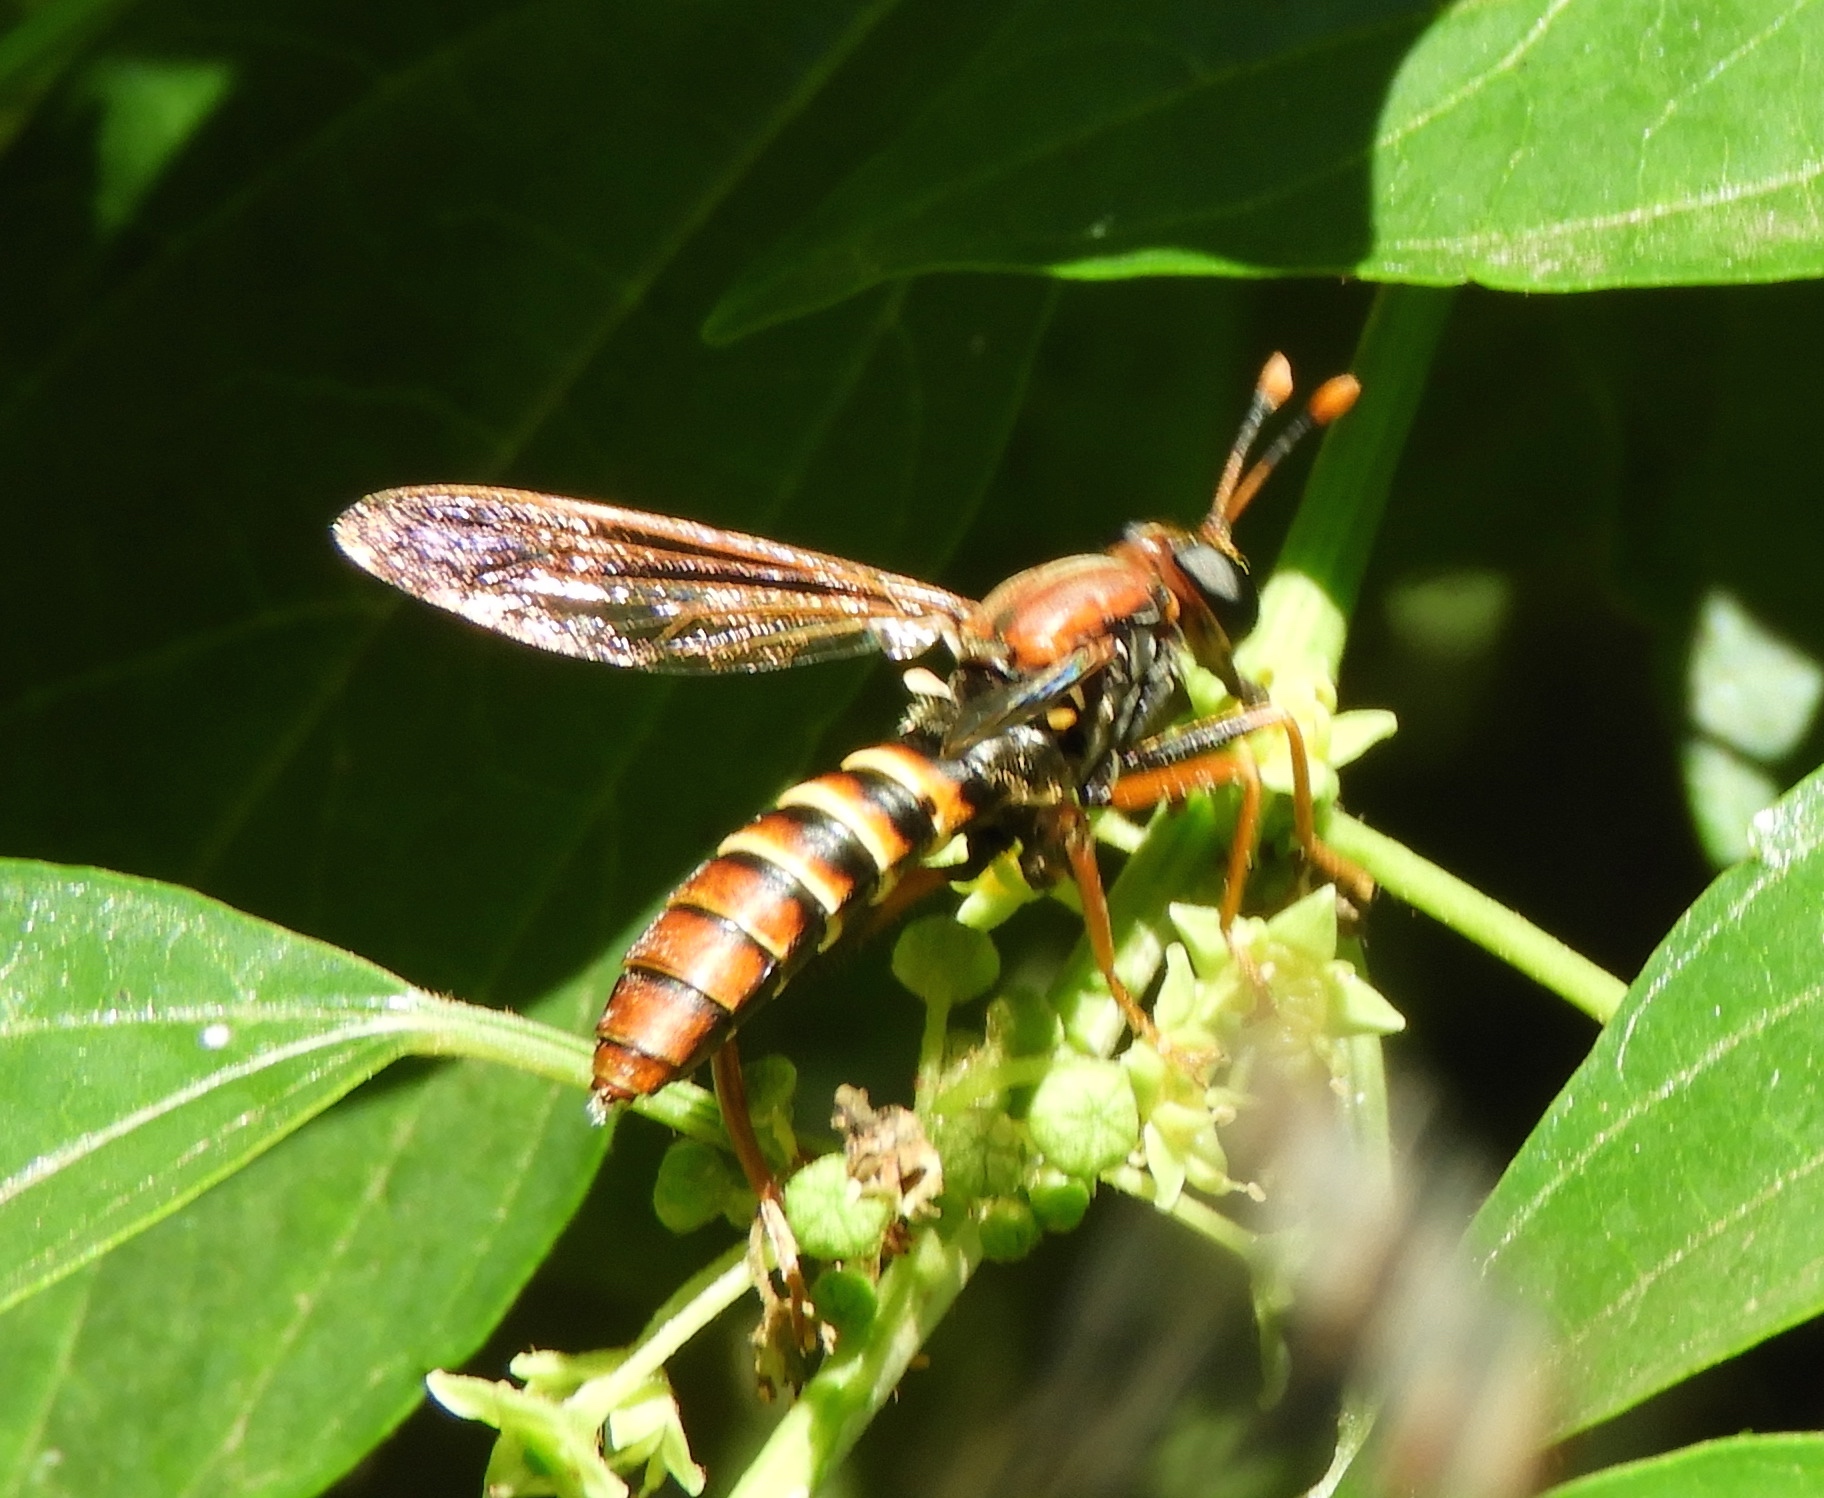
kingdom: Animalia
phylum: Arthropoda
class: Insecta
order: Diptera
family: Mydidae
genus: Mydas
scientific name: Mydas
